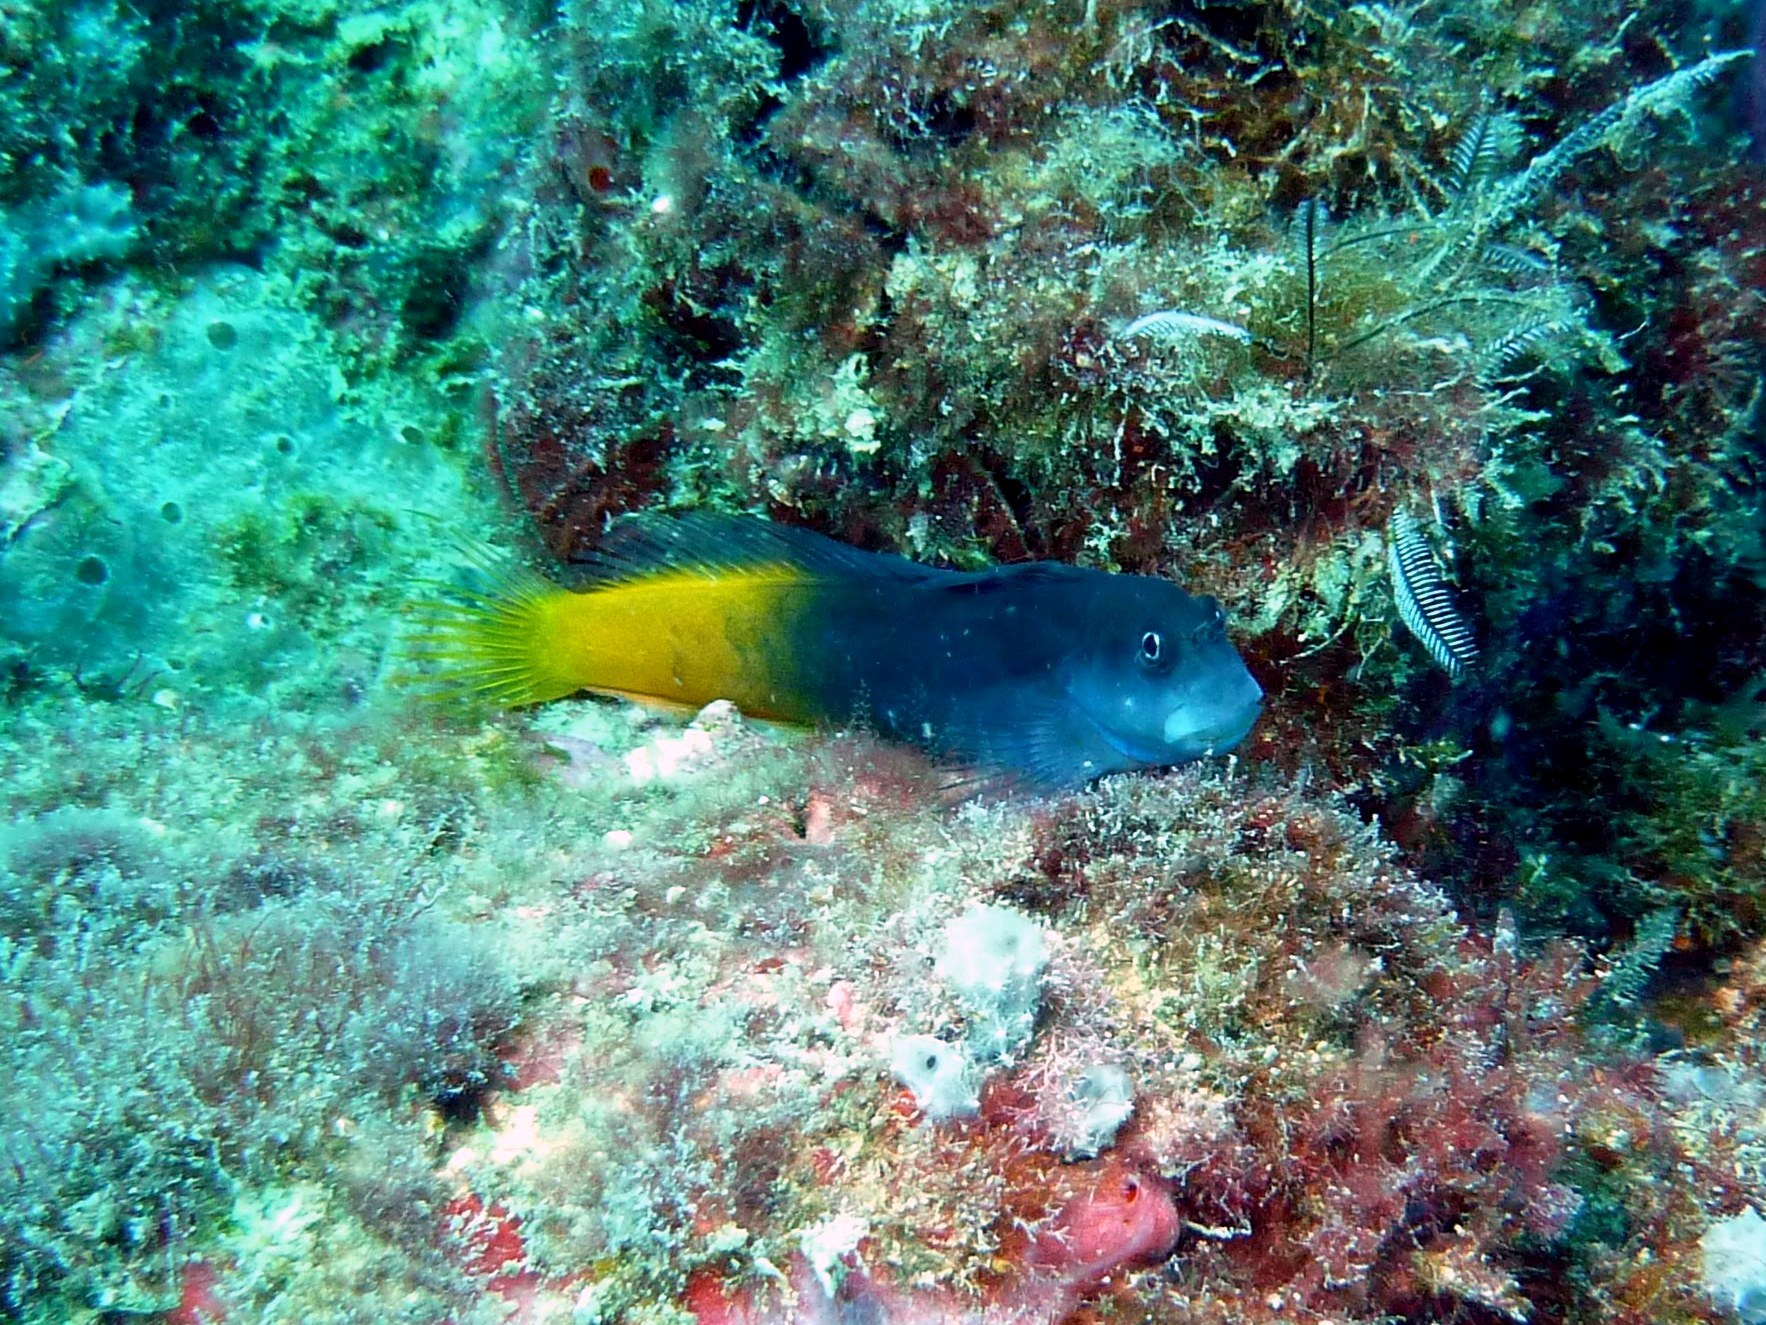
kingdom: Animalia
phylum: Chordata
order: Perciformes
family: Blenniidae
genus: Ecsenius
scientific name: Ecsenius bicolor
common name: Bicolor blenny
